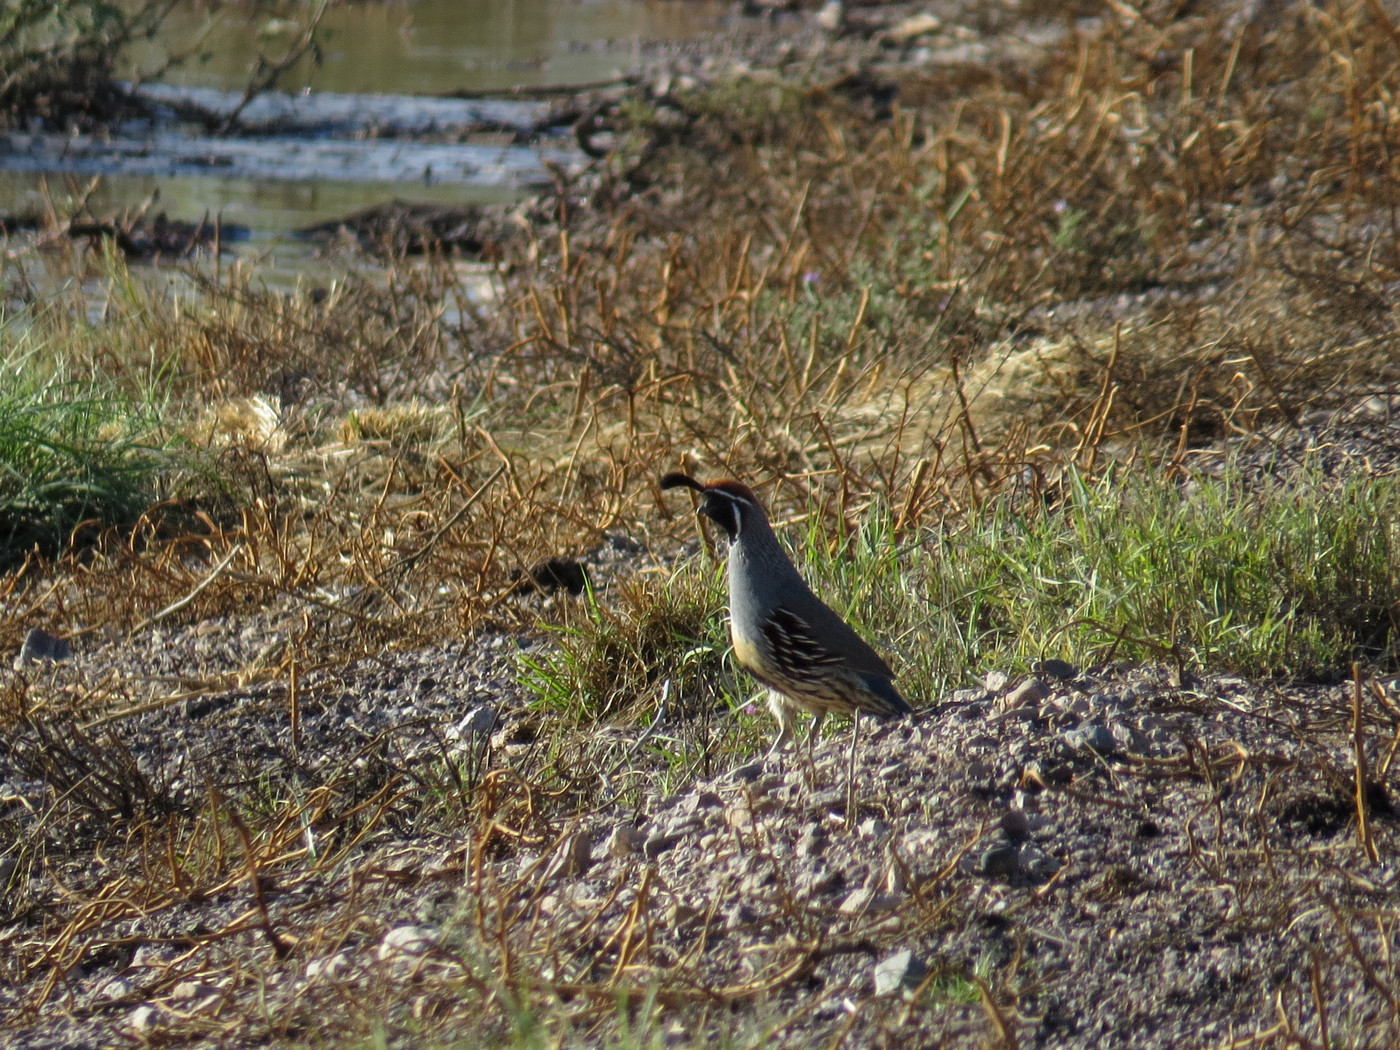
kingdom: Animalia
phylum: Chordata
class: Aves
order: Galliformes
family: Odontophoridae
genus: Callipepla
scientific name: Callipepla gambelii
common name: Gambel's quail
